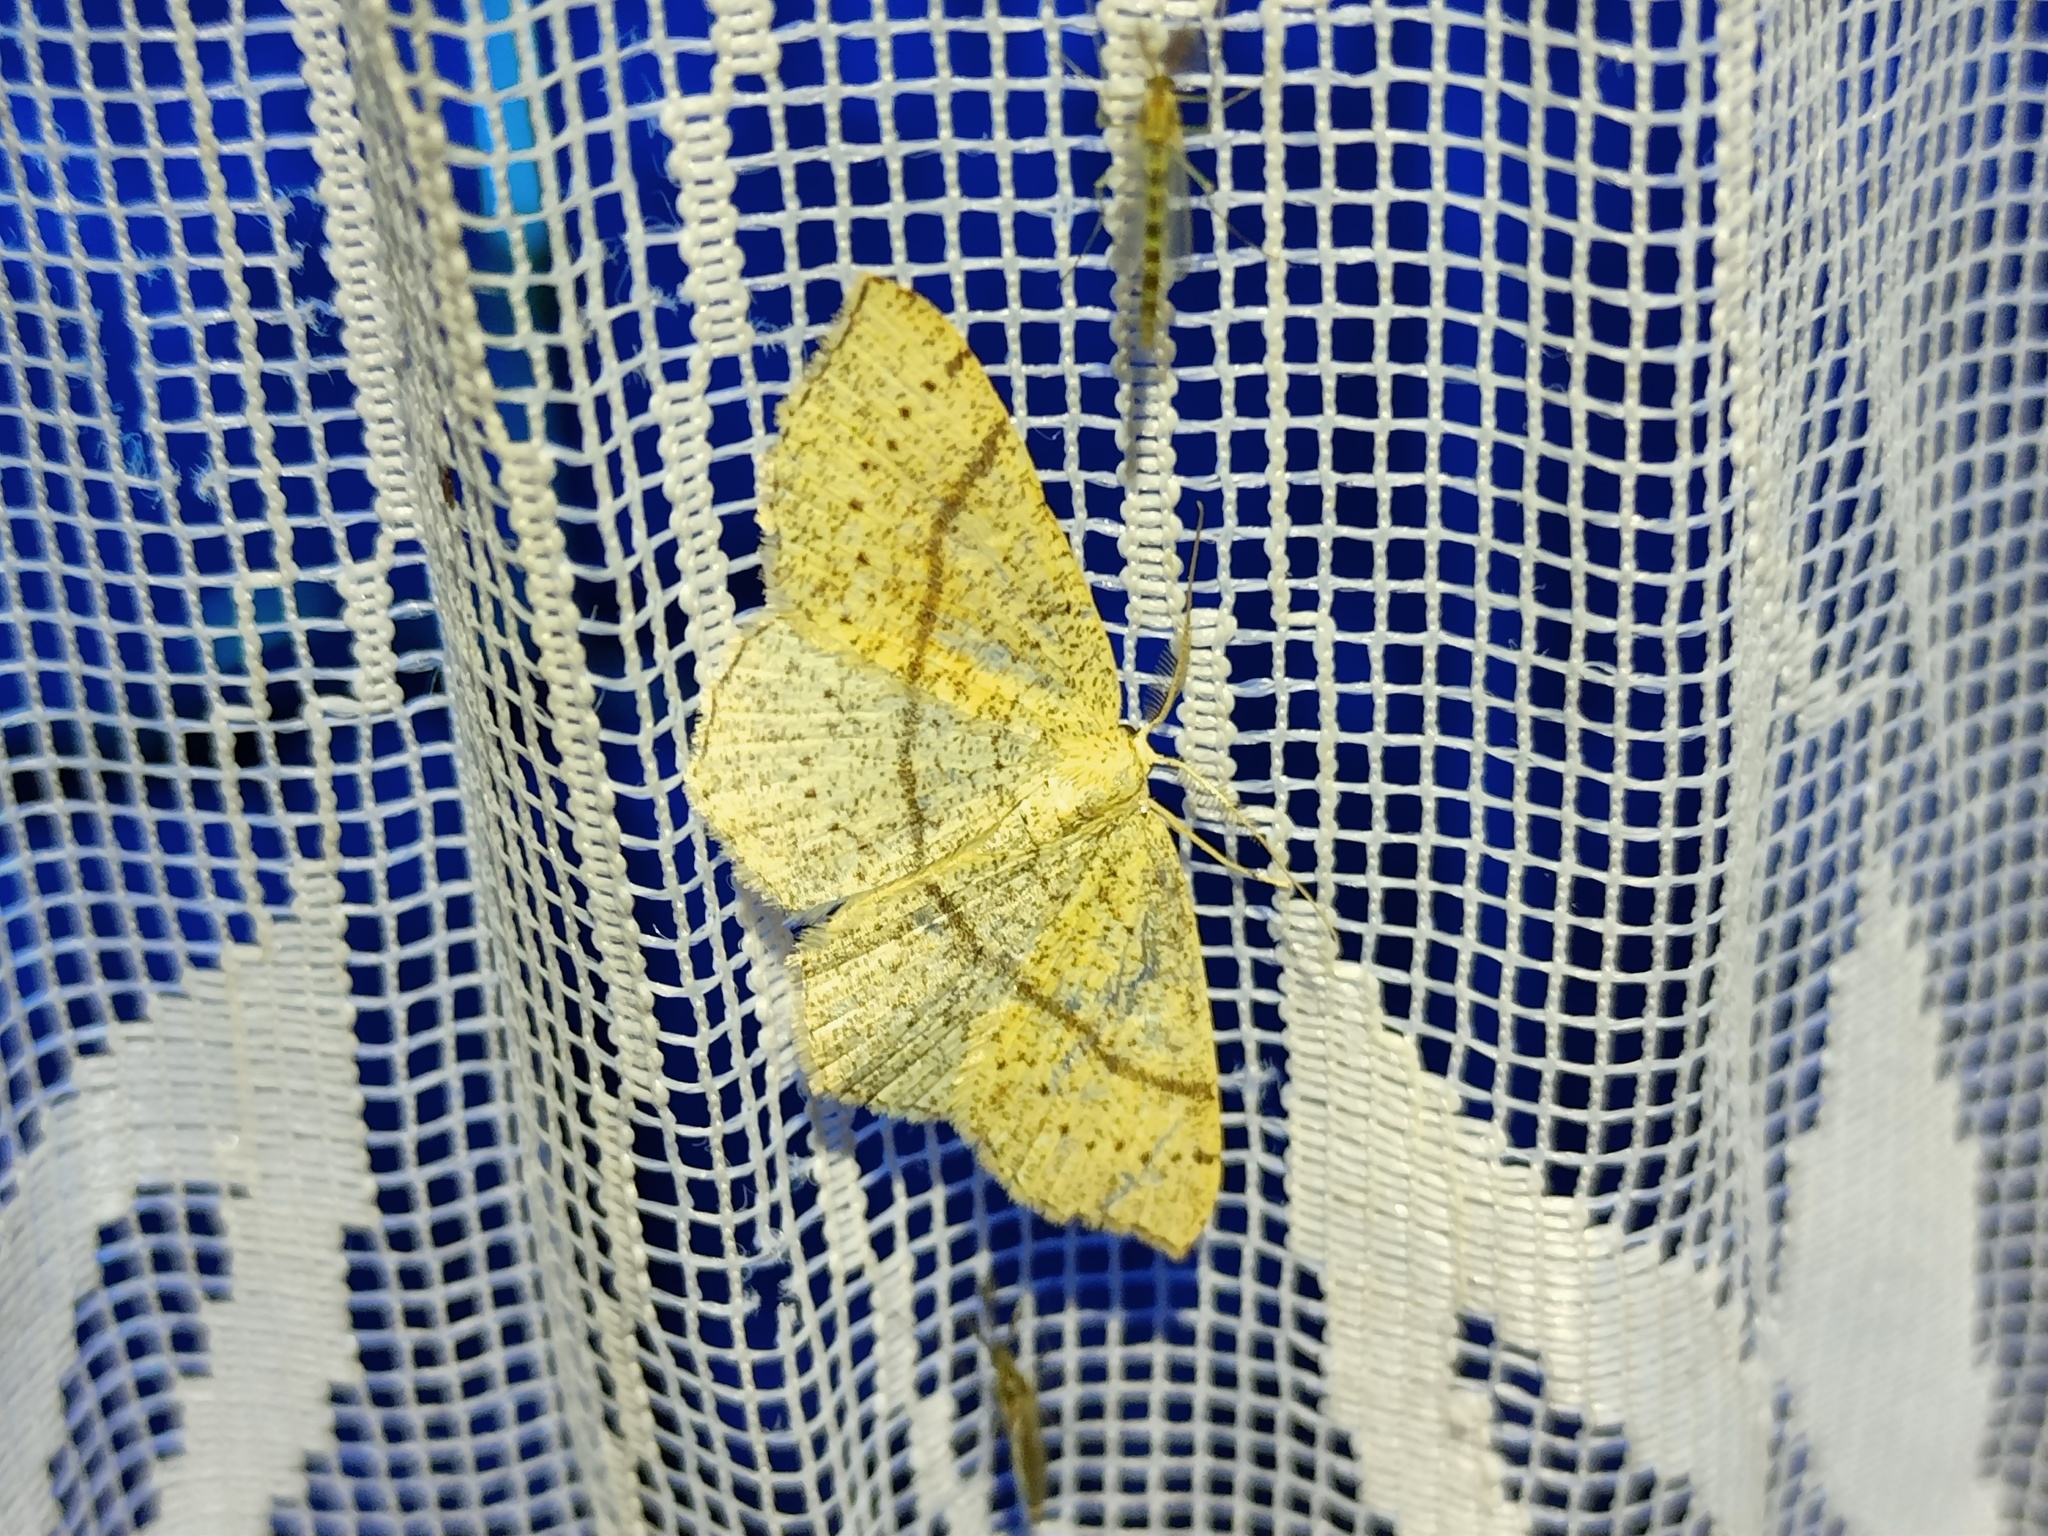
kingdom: Animalia
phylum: Arthropoda
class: Insecta
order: Lepidoptera
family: Geometridae
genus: Cyclophora
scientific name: Cyclophora punctaria
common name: Maiden's blush
